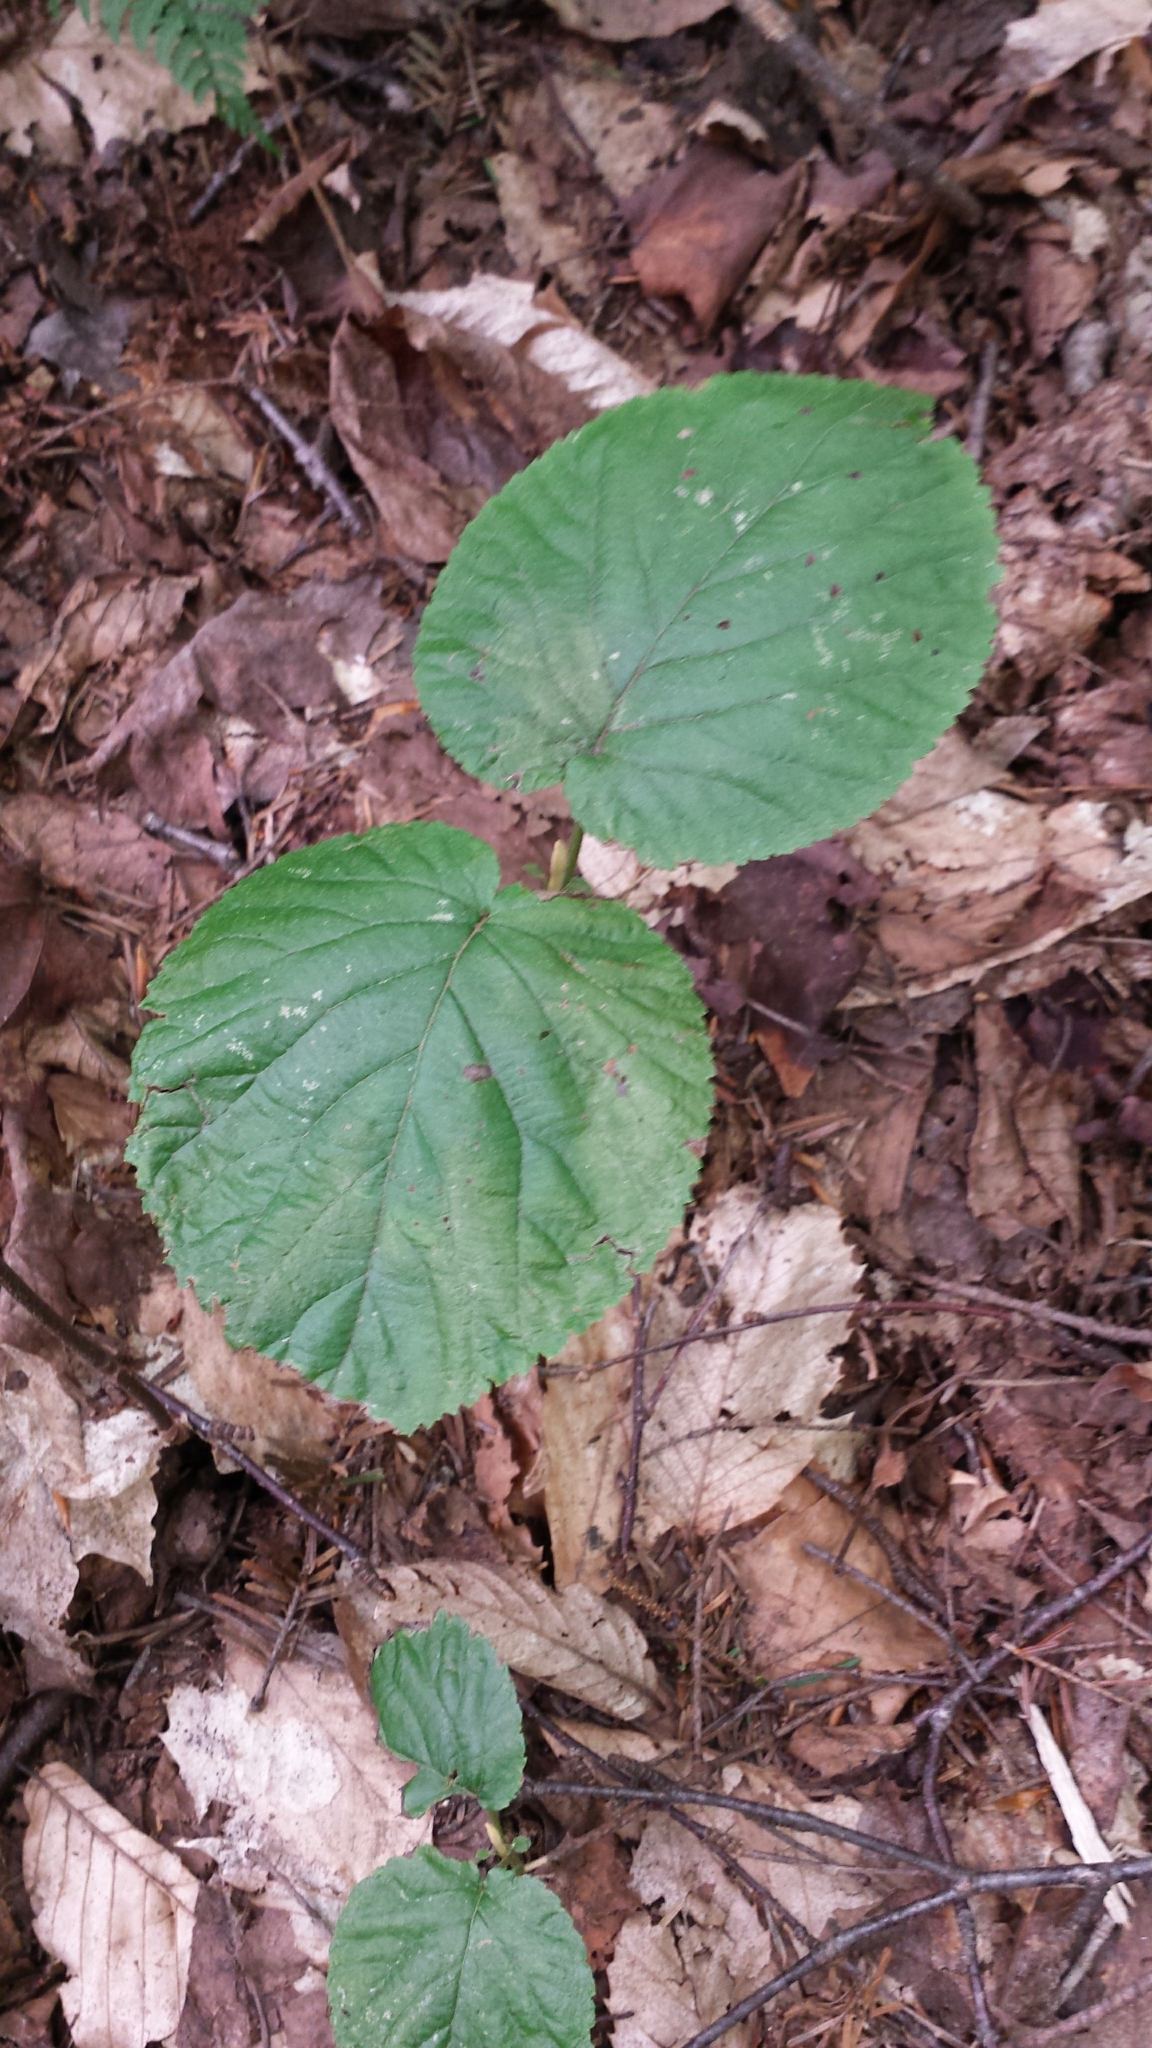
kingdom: Plantae
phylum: Tracheophyta
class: Magnoliopsida
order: Dipsacales
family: Viburnaceae
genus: Viburnum
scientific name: Viburnum lantanoides
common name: Hobblebush
